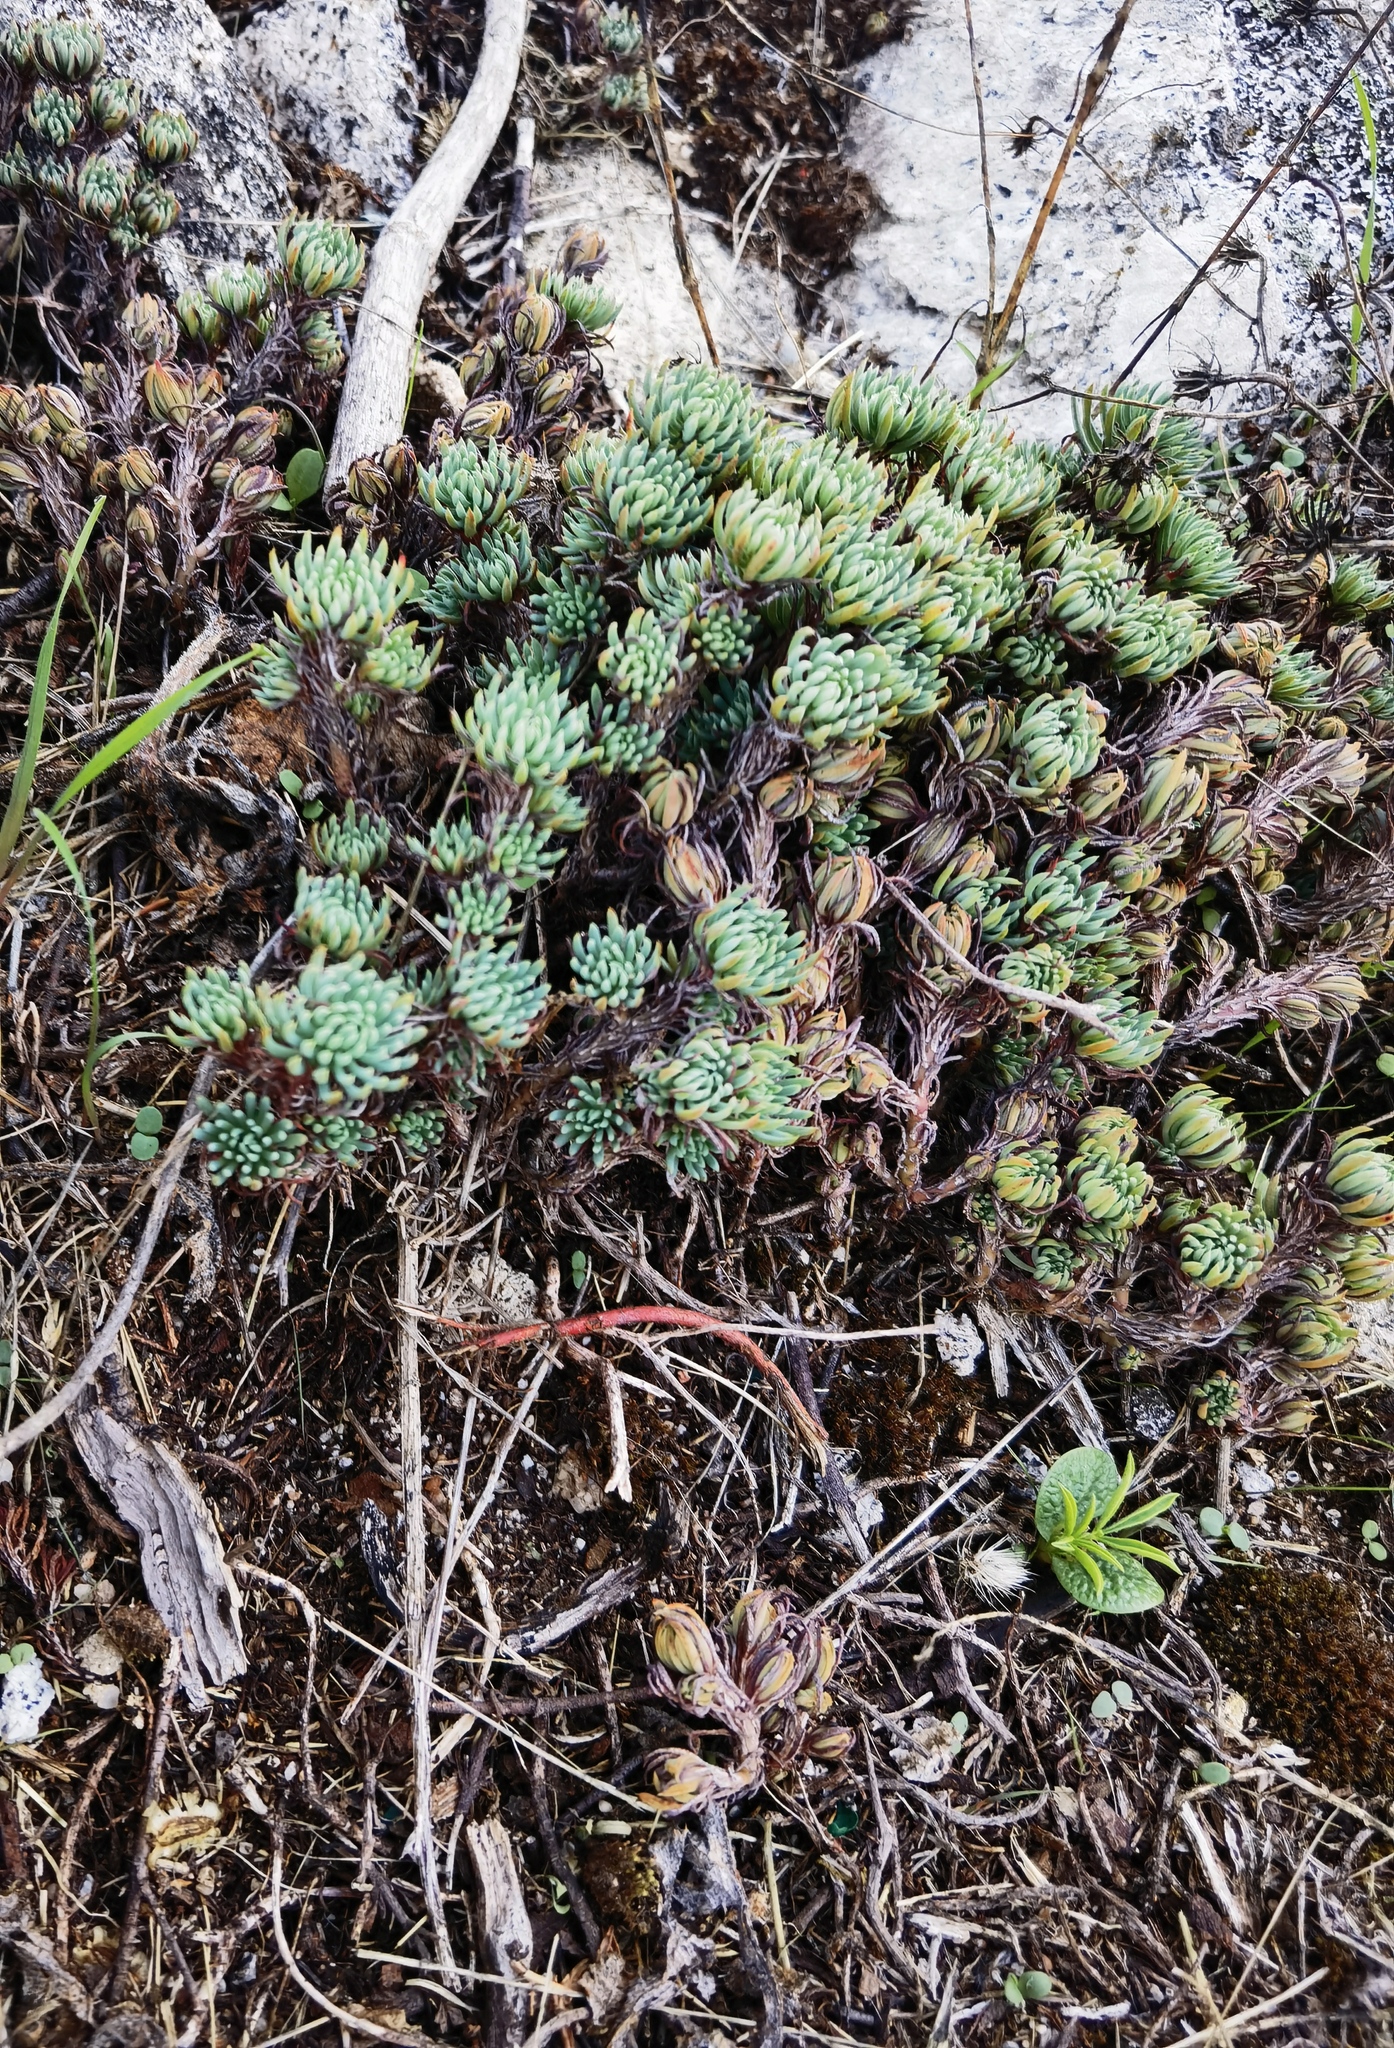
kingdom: Plantae
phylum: Tracheophyta
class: Magnoliopsida
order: Saxifragales
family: Crassulaceae
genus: Petrosedum
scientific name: Petrosedum forsterianum
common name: Forster's stonecrop
